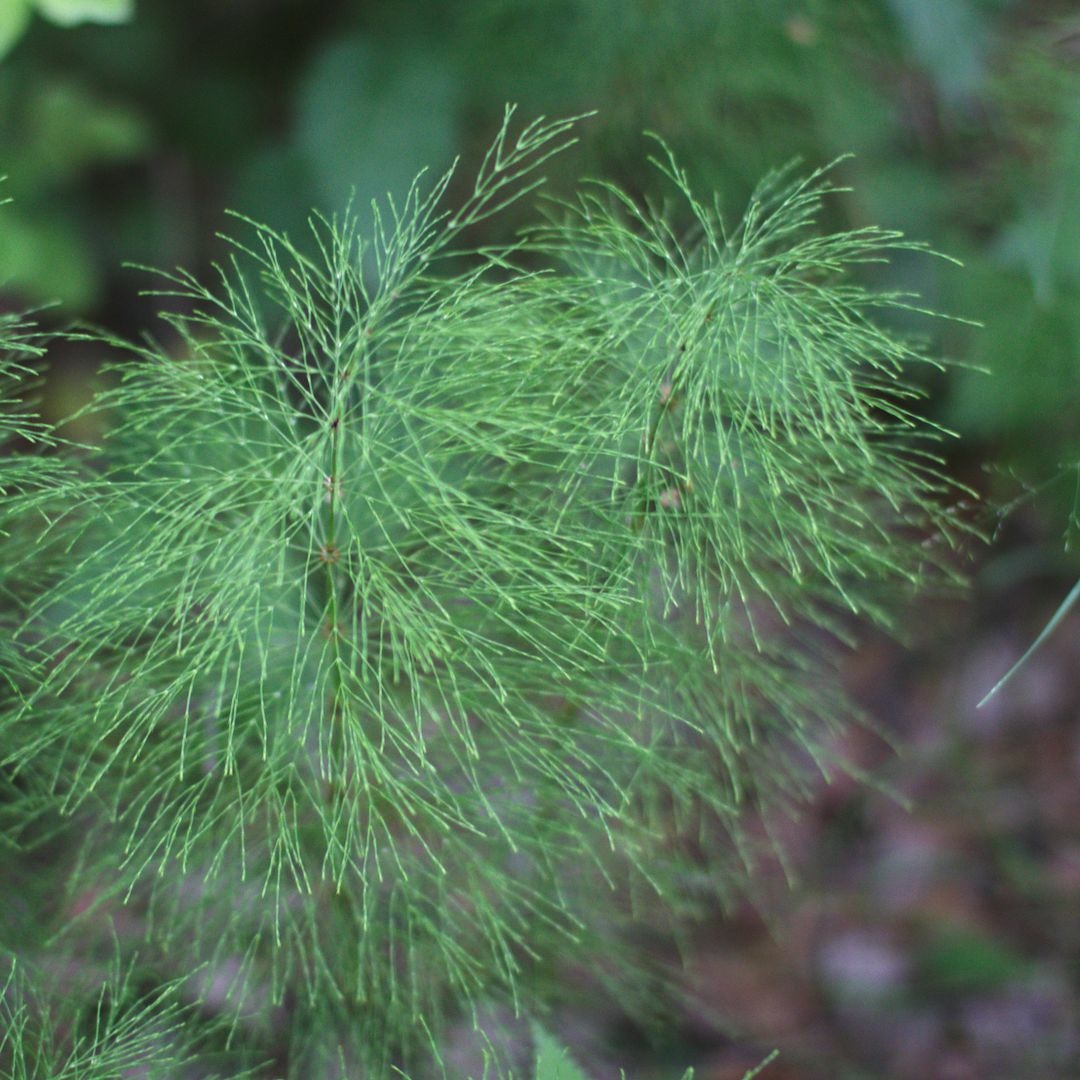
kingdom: Plantae
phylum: Tracheophyta
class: Polypodiopsida
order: Equisetales
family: Equisetaceae
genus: Equisetum
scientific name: Equisetum sylvaticum
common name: Wood horsetail
